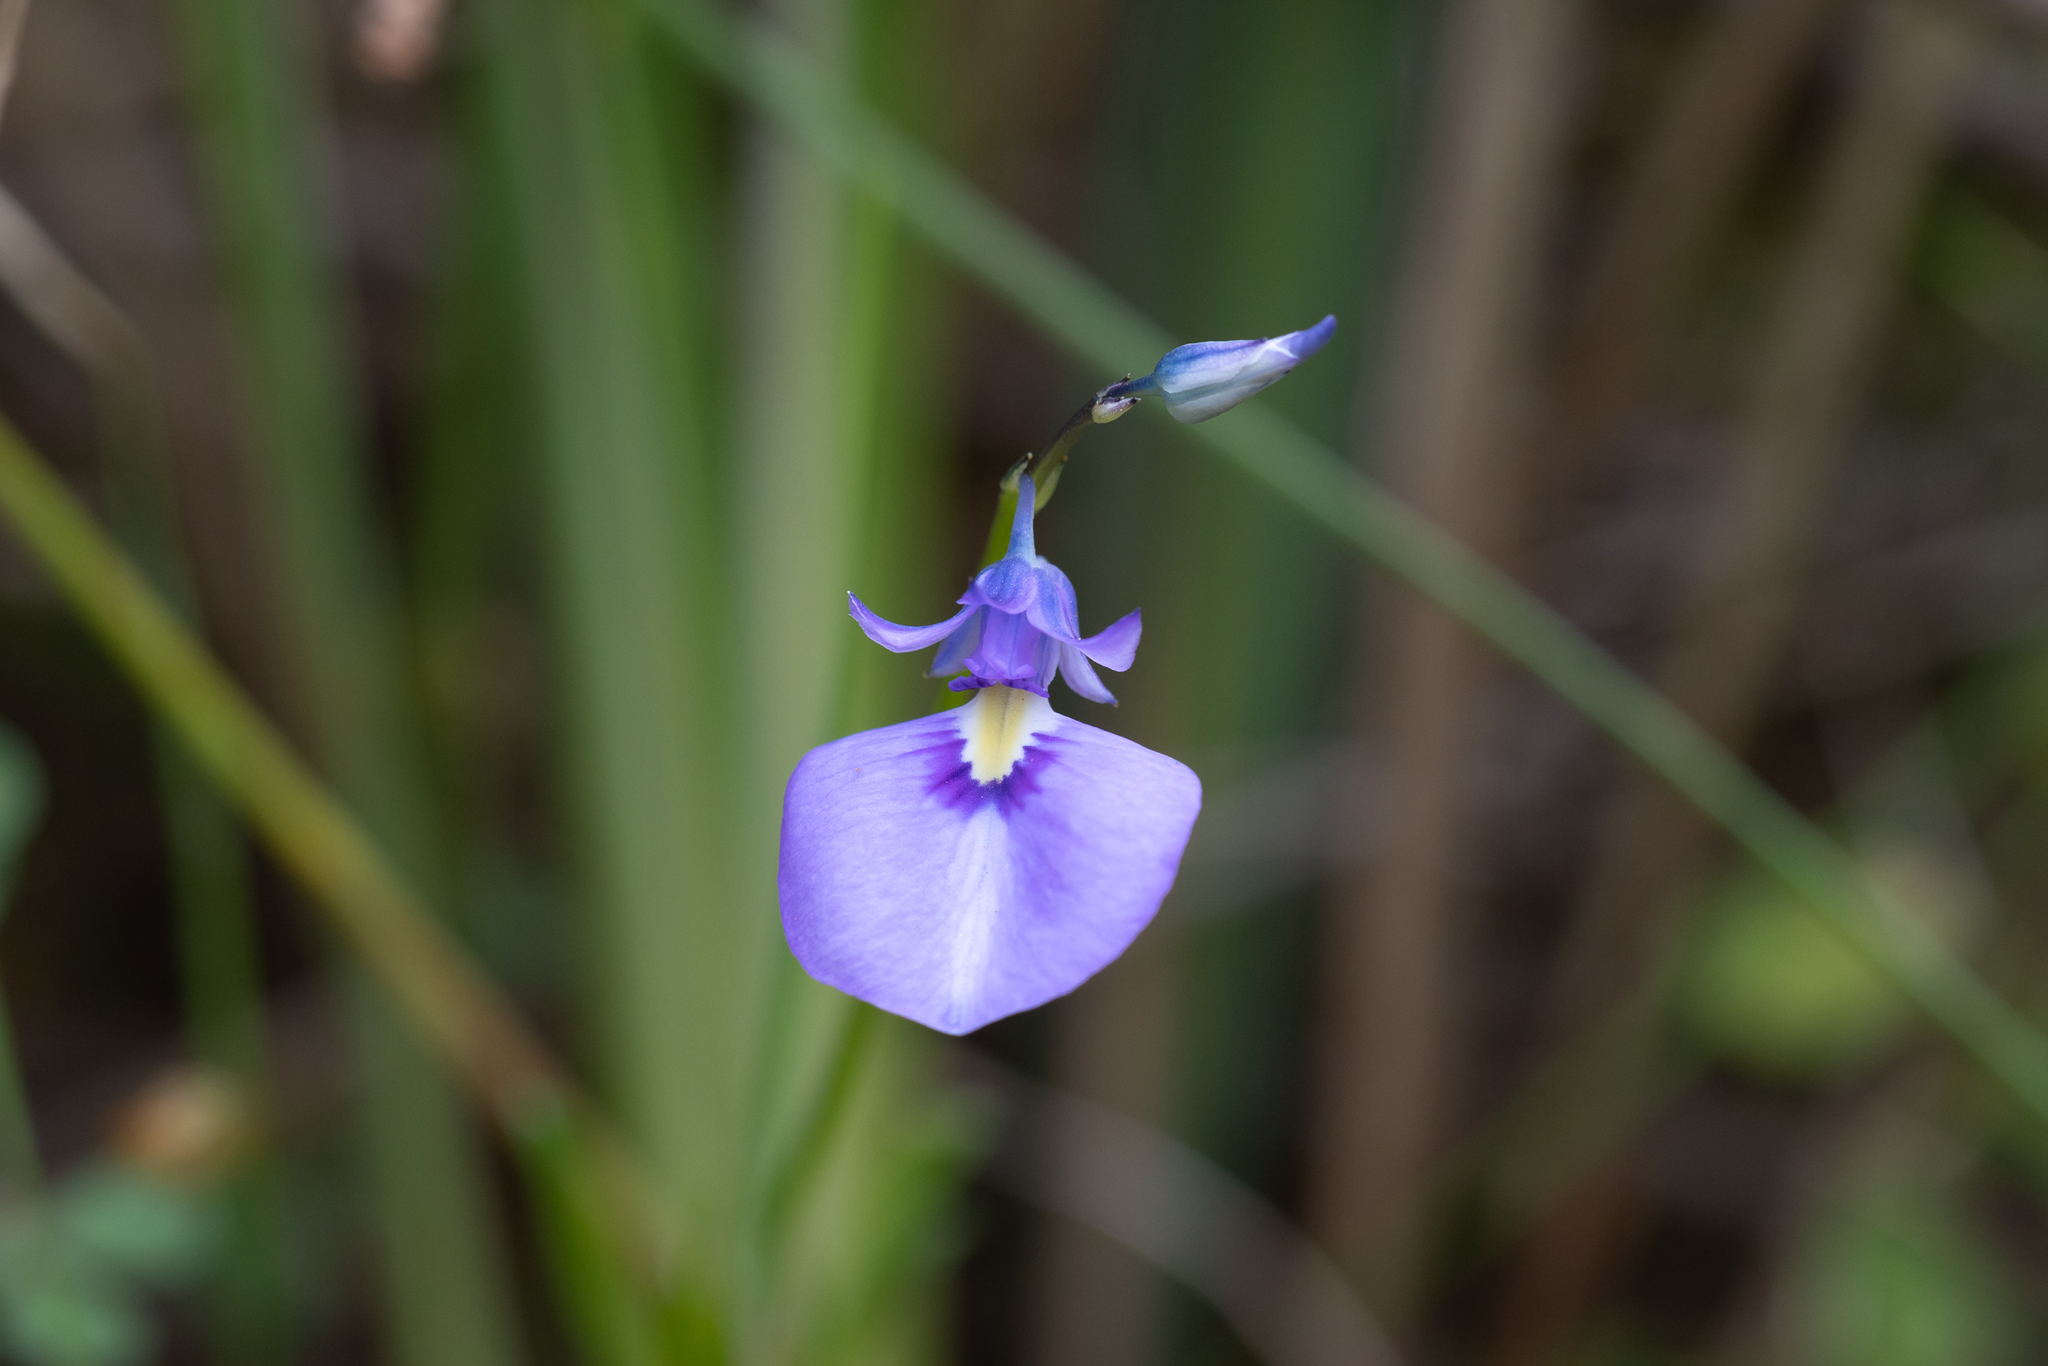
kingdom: Plantae
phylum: Tracheophyta
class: Magnoliopsida
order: Malpighiales
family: Violaceae
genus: Pigea
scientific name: Pigea calycina
